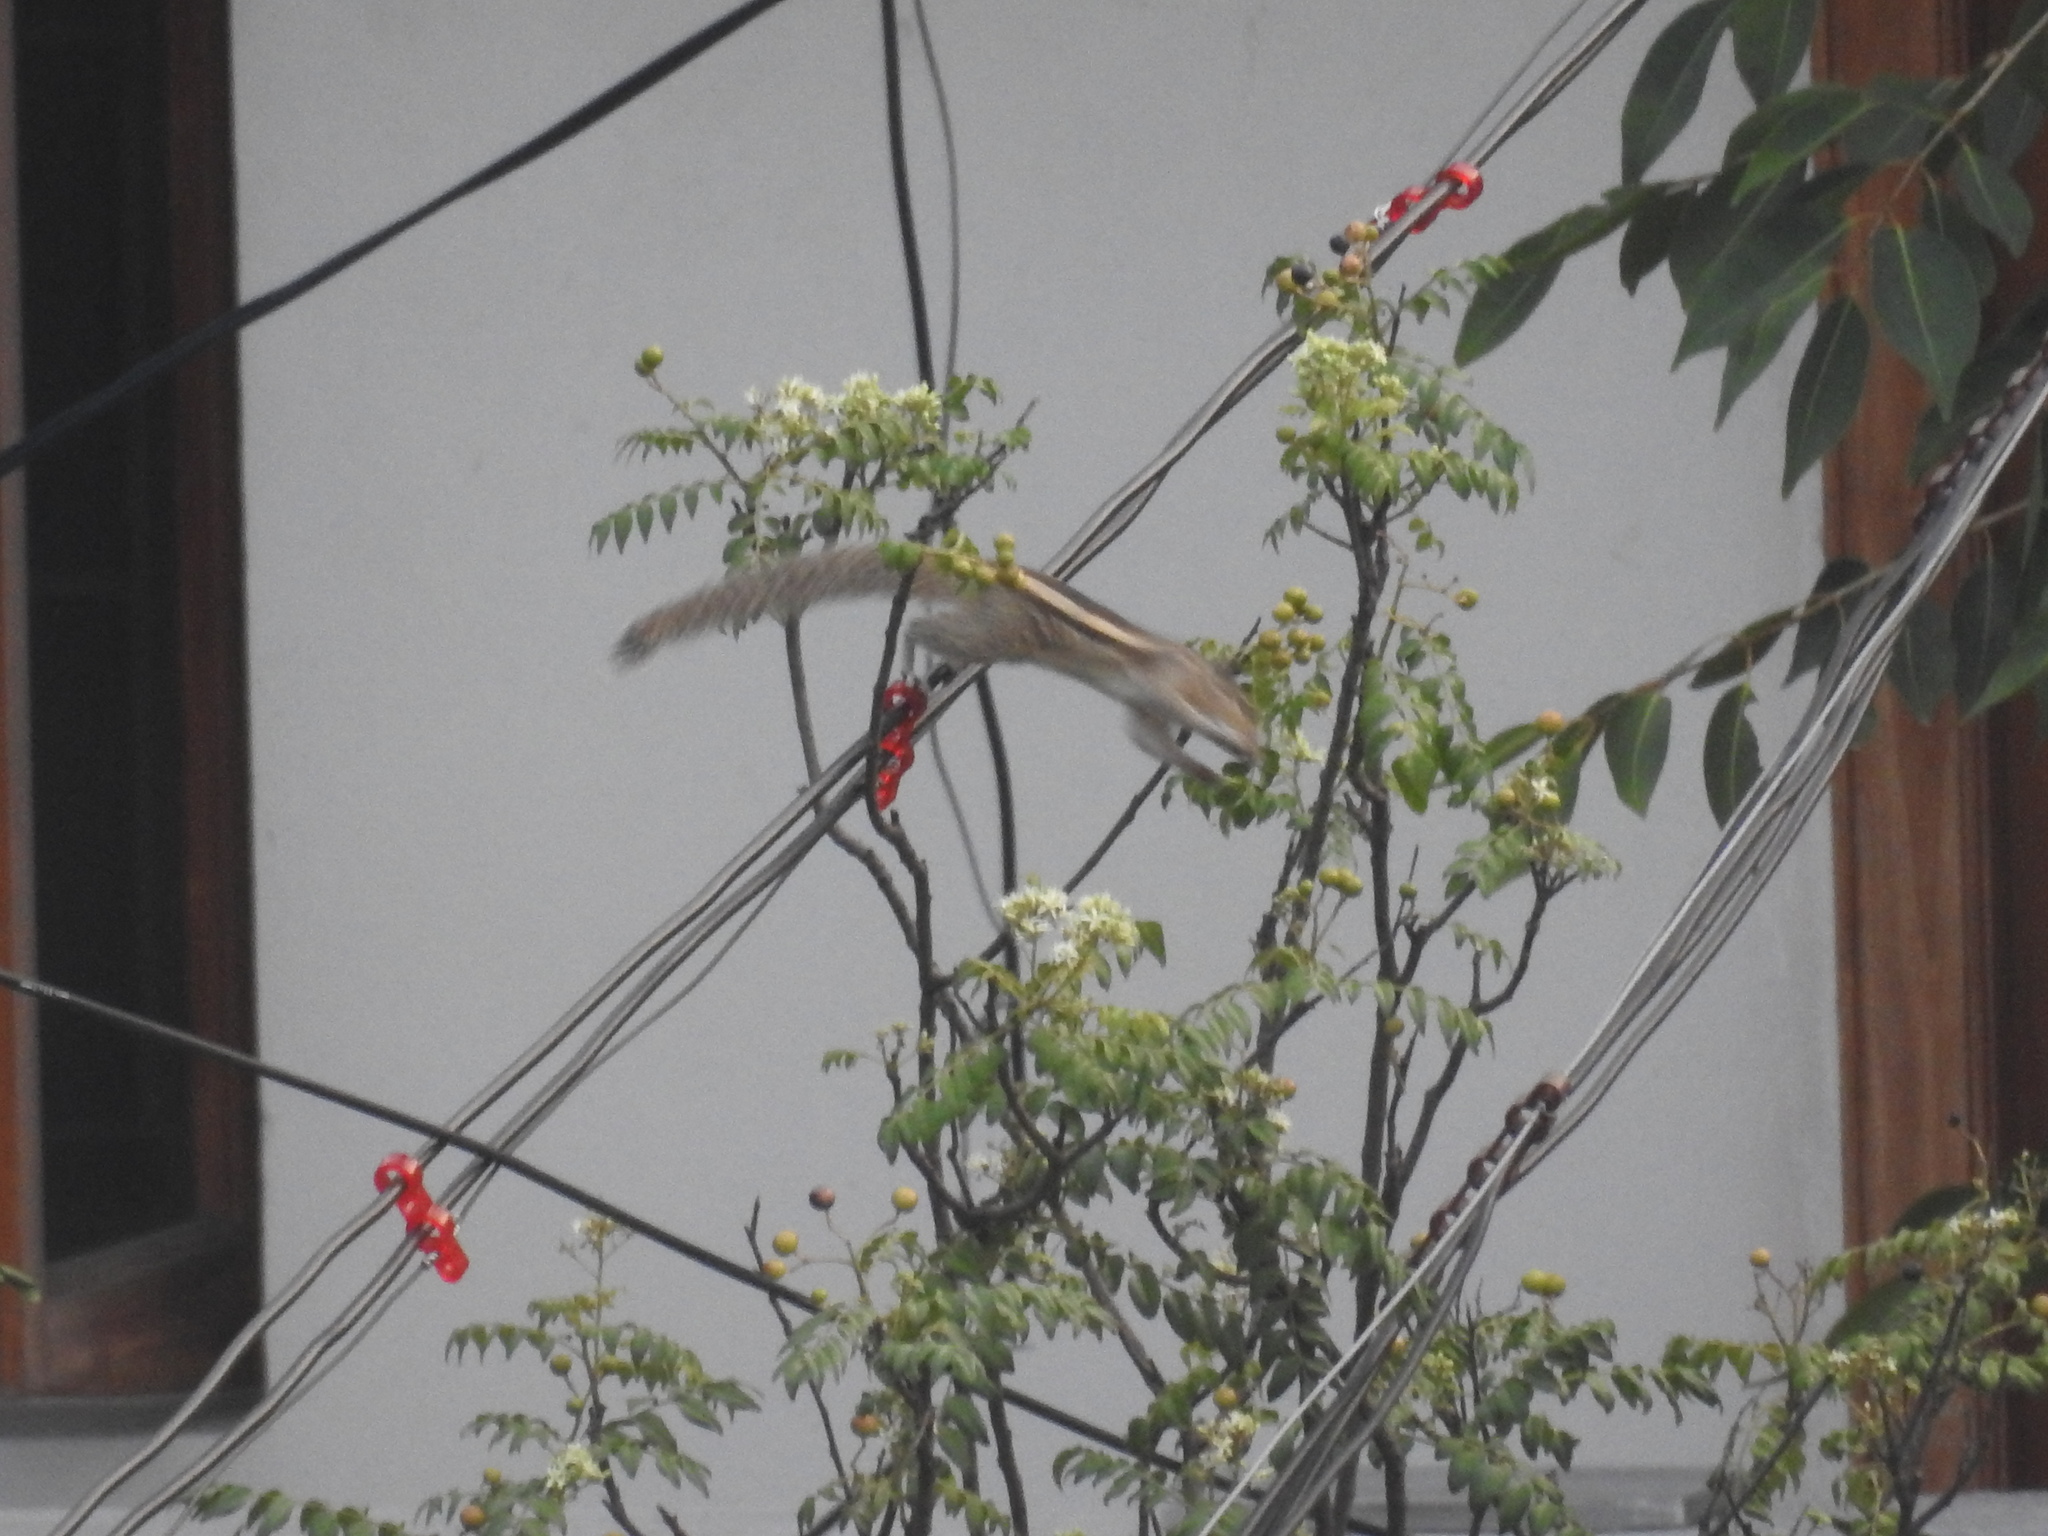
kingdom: Animalia
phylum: Chordata
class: Mammalia
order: Rodentia
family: Sciuridae
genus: Funambulus
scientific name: Funambulus palmarum
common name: Indian palm squirrel
